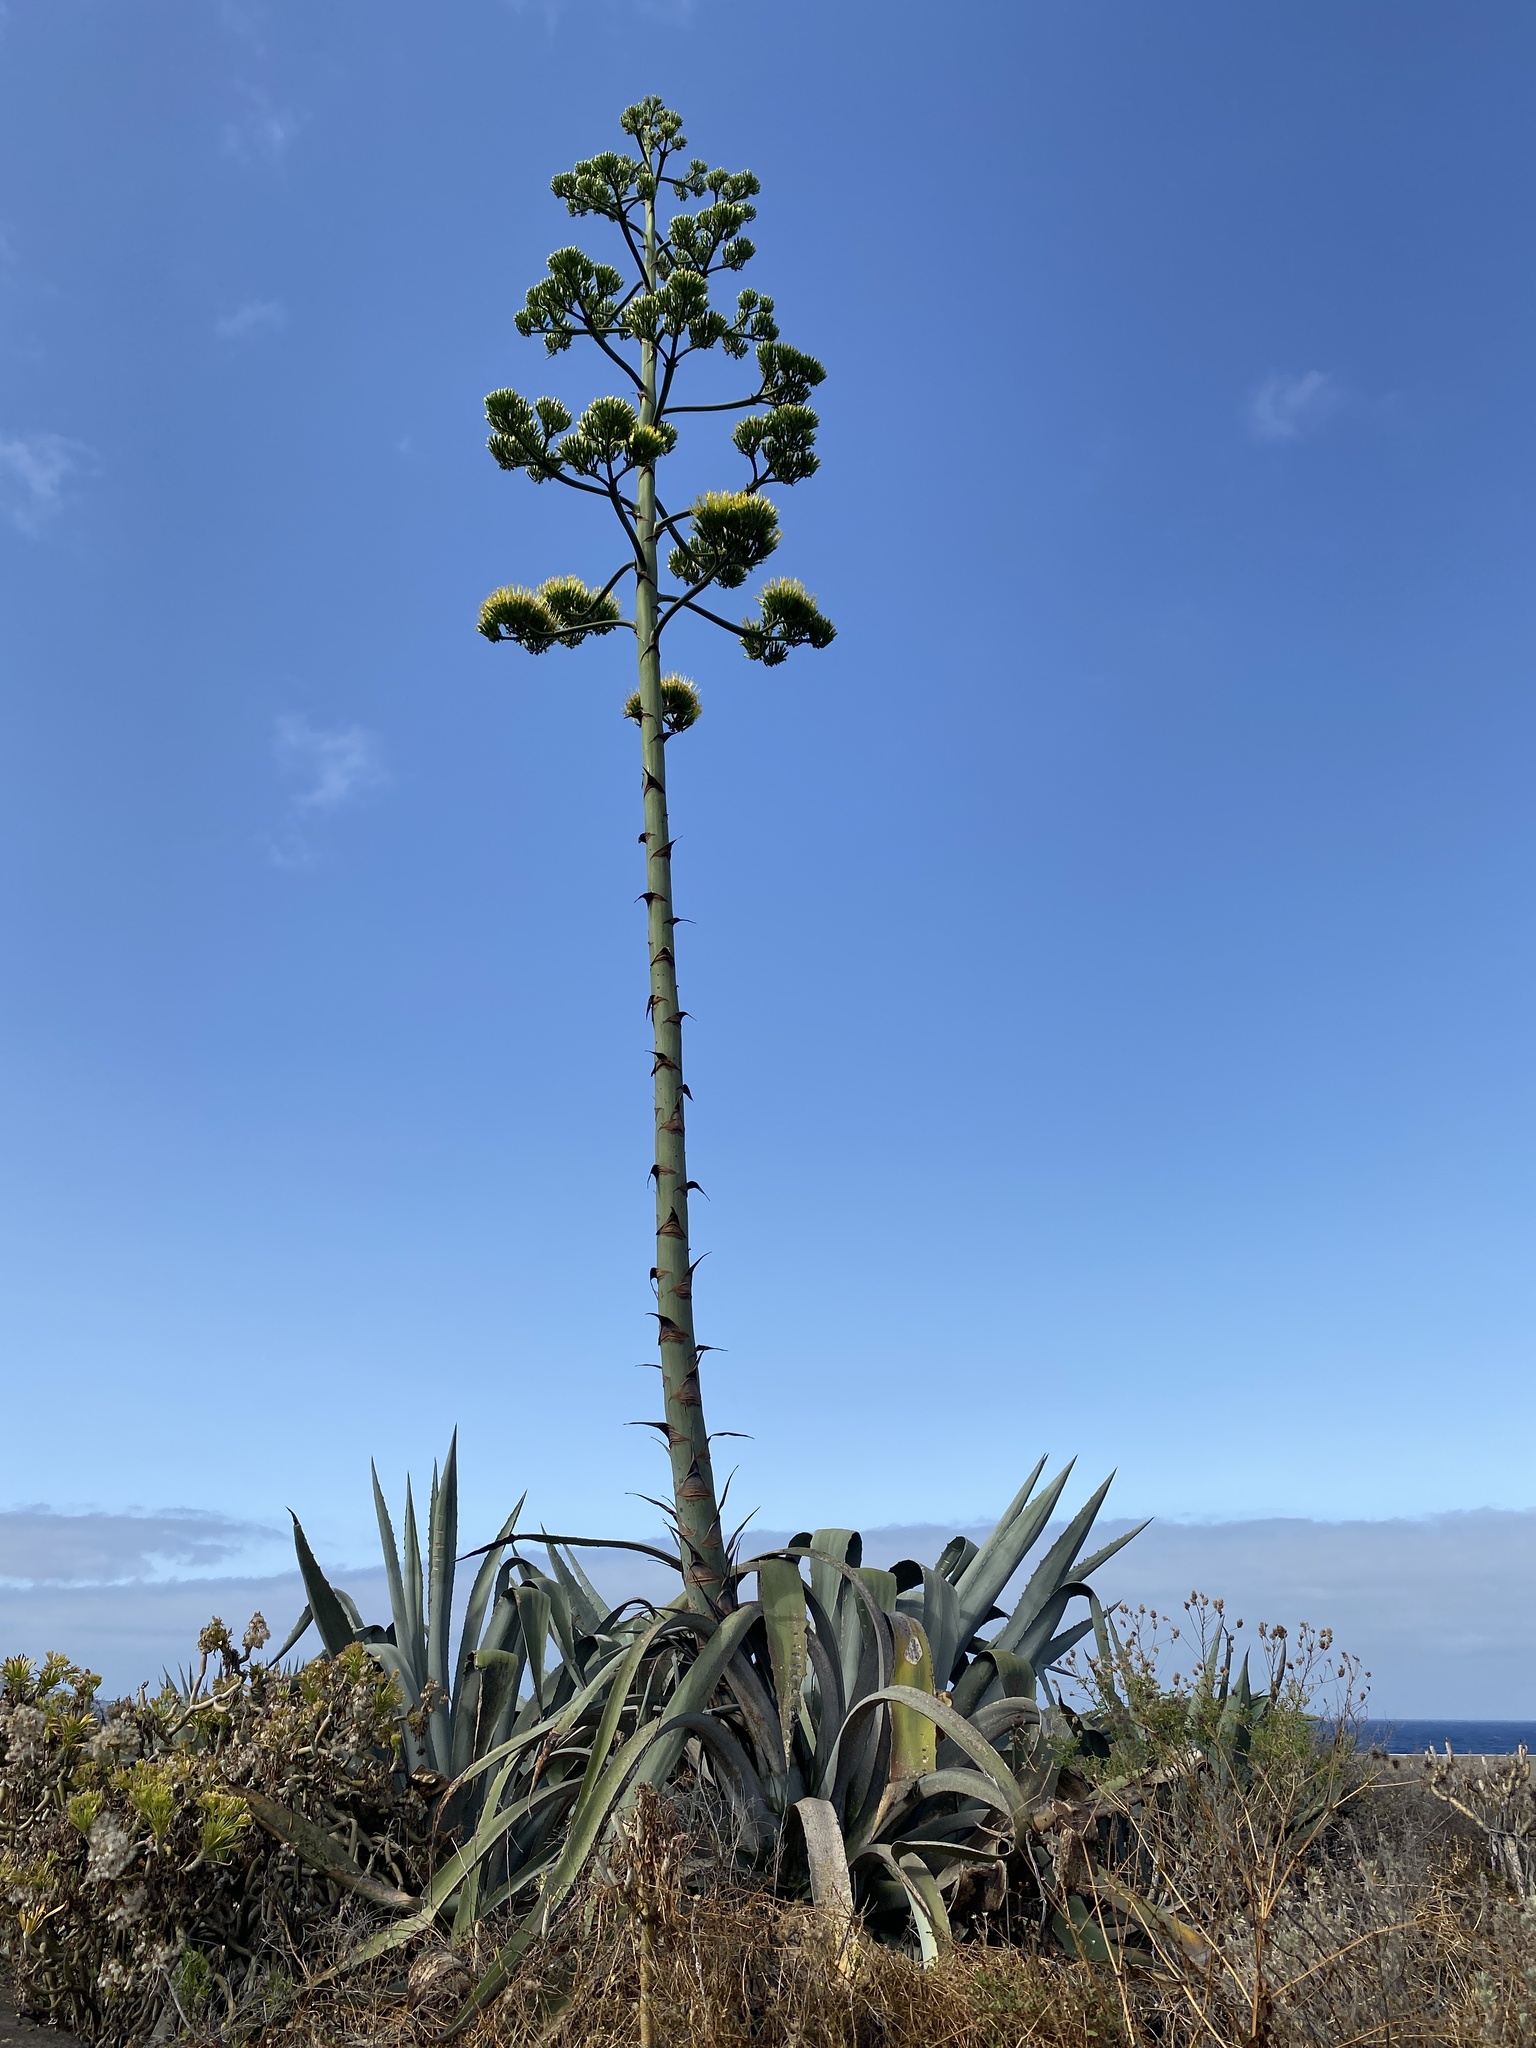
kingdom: Plantae
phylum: Tracheophyta
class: Liliopsida
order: Asparagales
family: Asparagaceae
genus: Agave
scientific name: Agave americana
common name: Centuryplant
